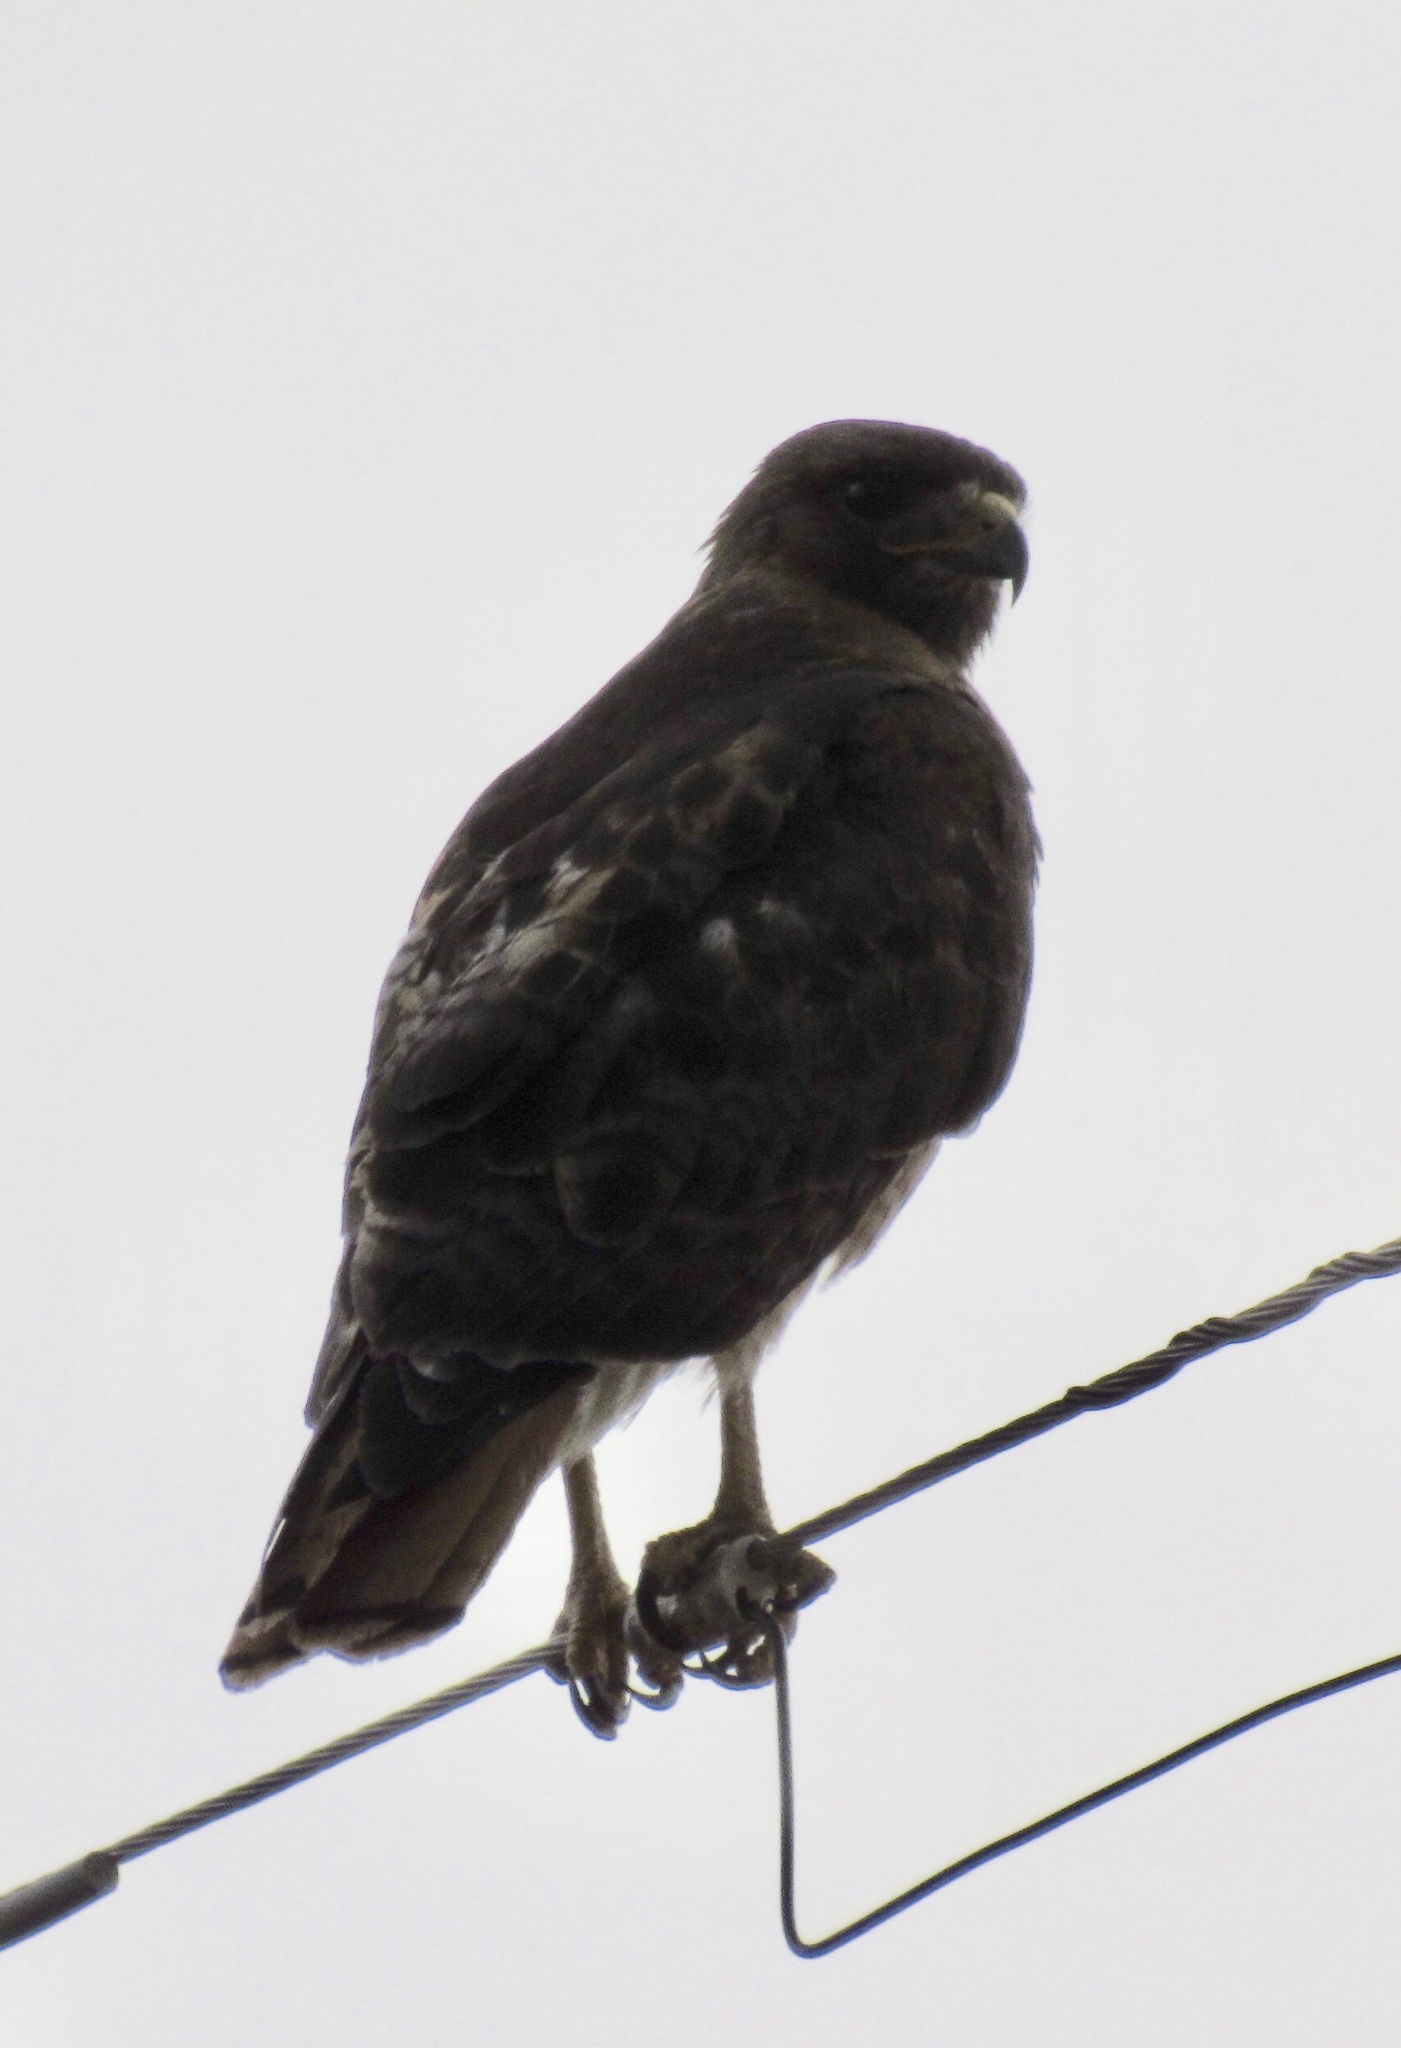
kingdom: Animalia
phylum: Chordata
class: Aves
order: Accipitriformes
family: Accipitridae
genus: Buteo
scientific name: Buteo jamaicensis
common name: Red-tailed hawk
